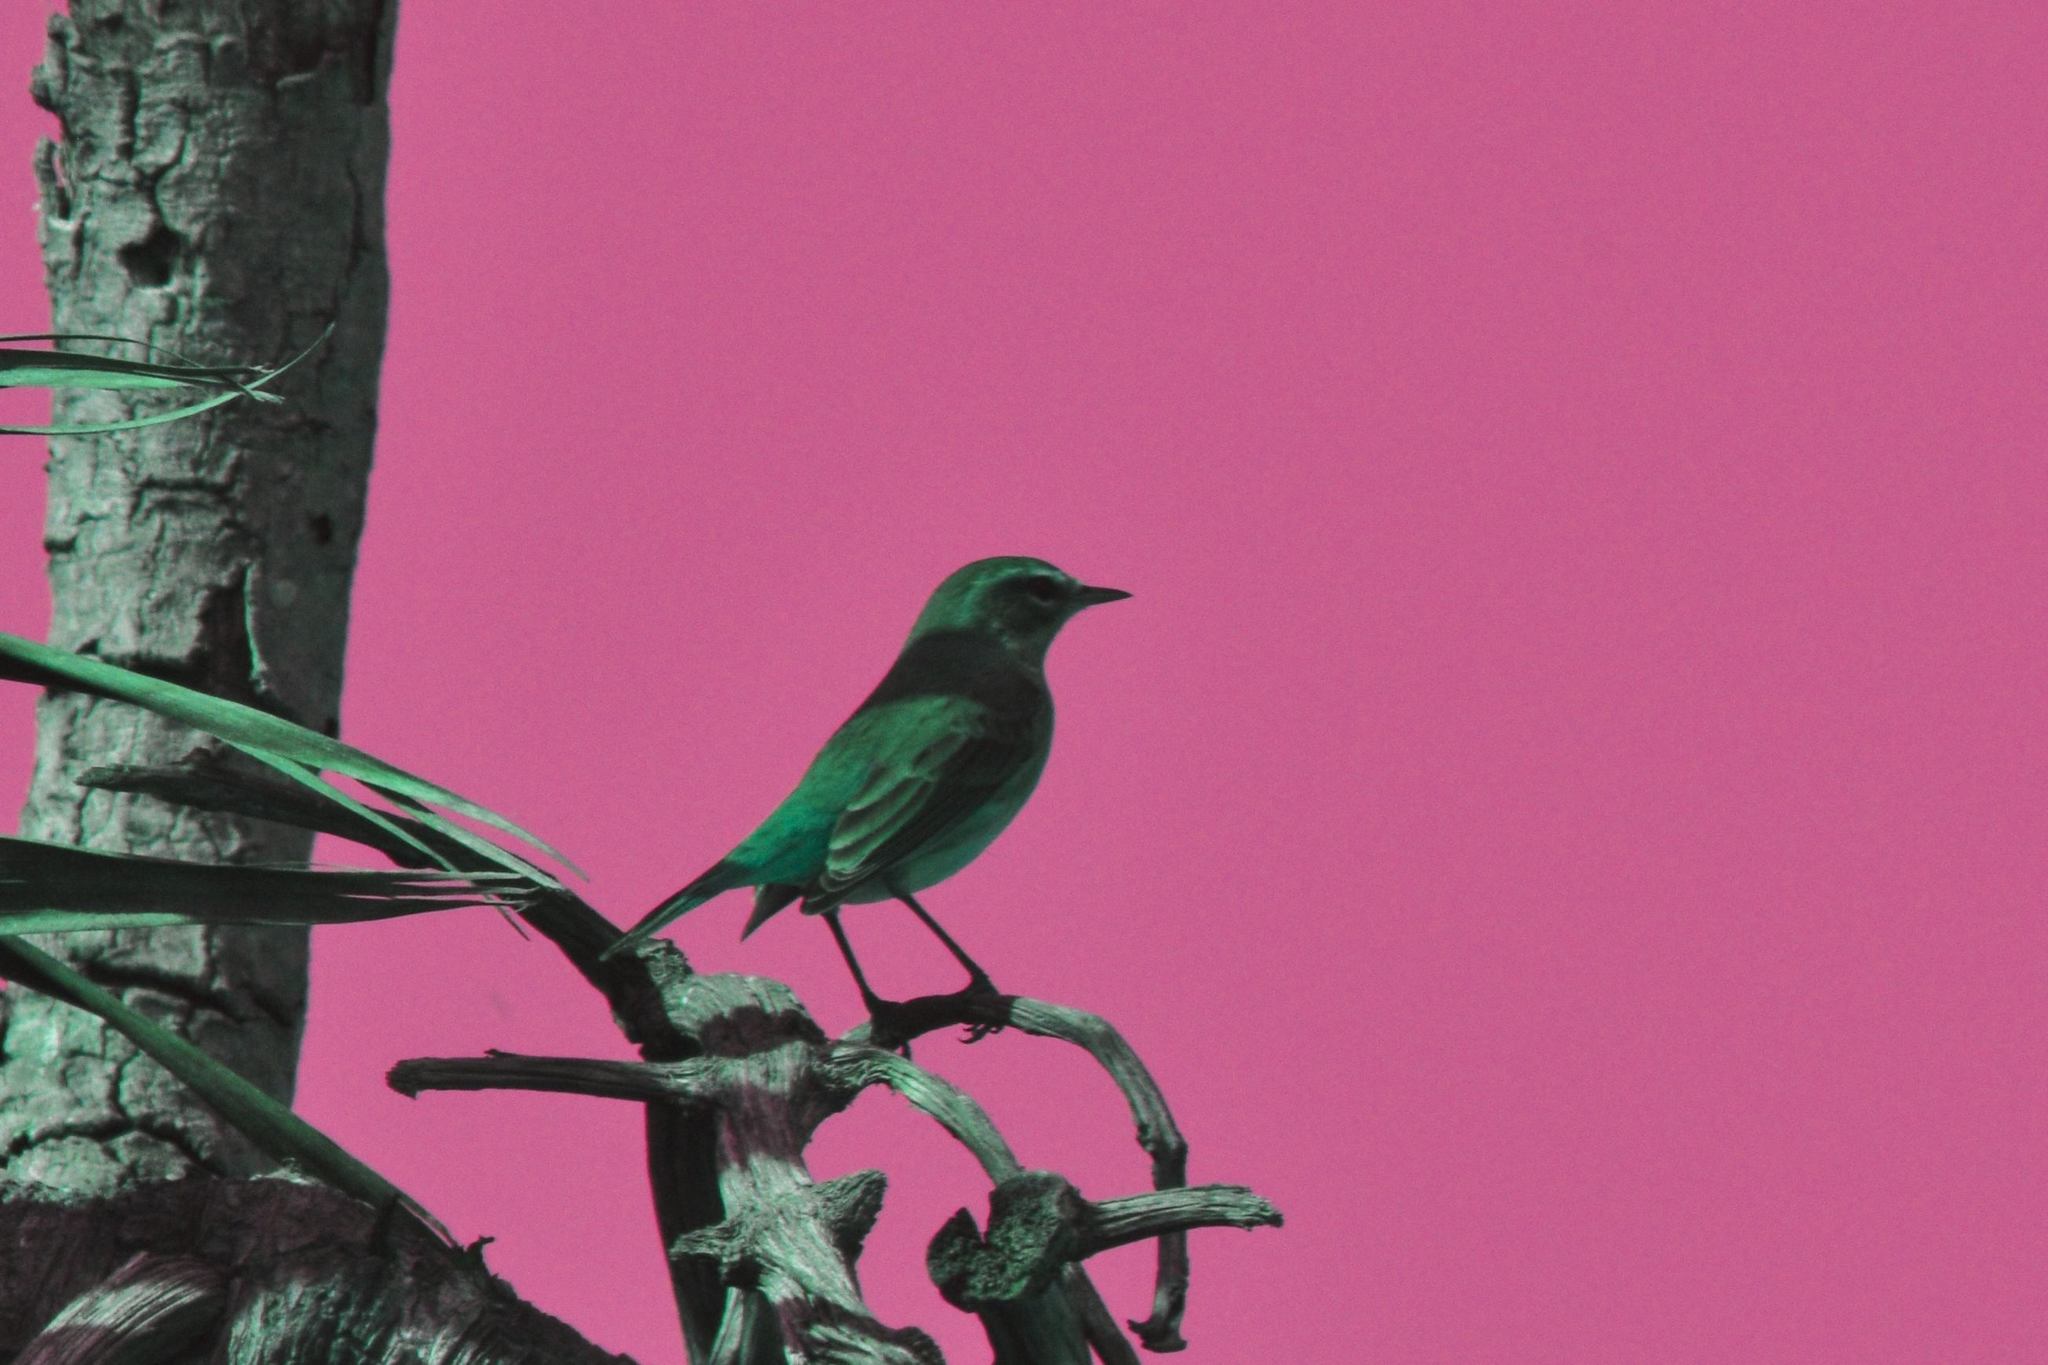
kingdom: Animalia
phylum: Chordata
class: Aves
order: Passeriformes
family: Parulidae
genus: Setophaga
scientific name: Setophaga palmarum
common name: Palm warbler
